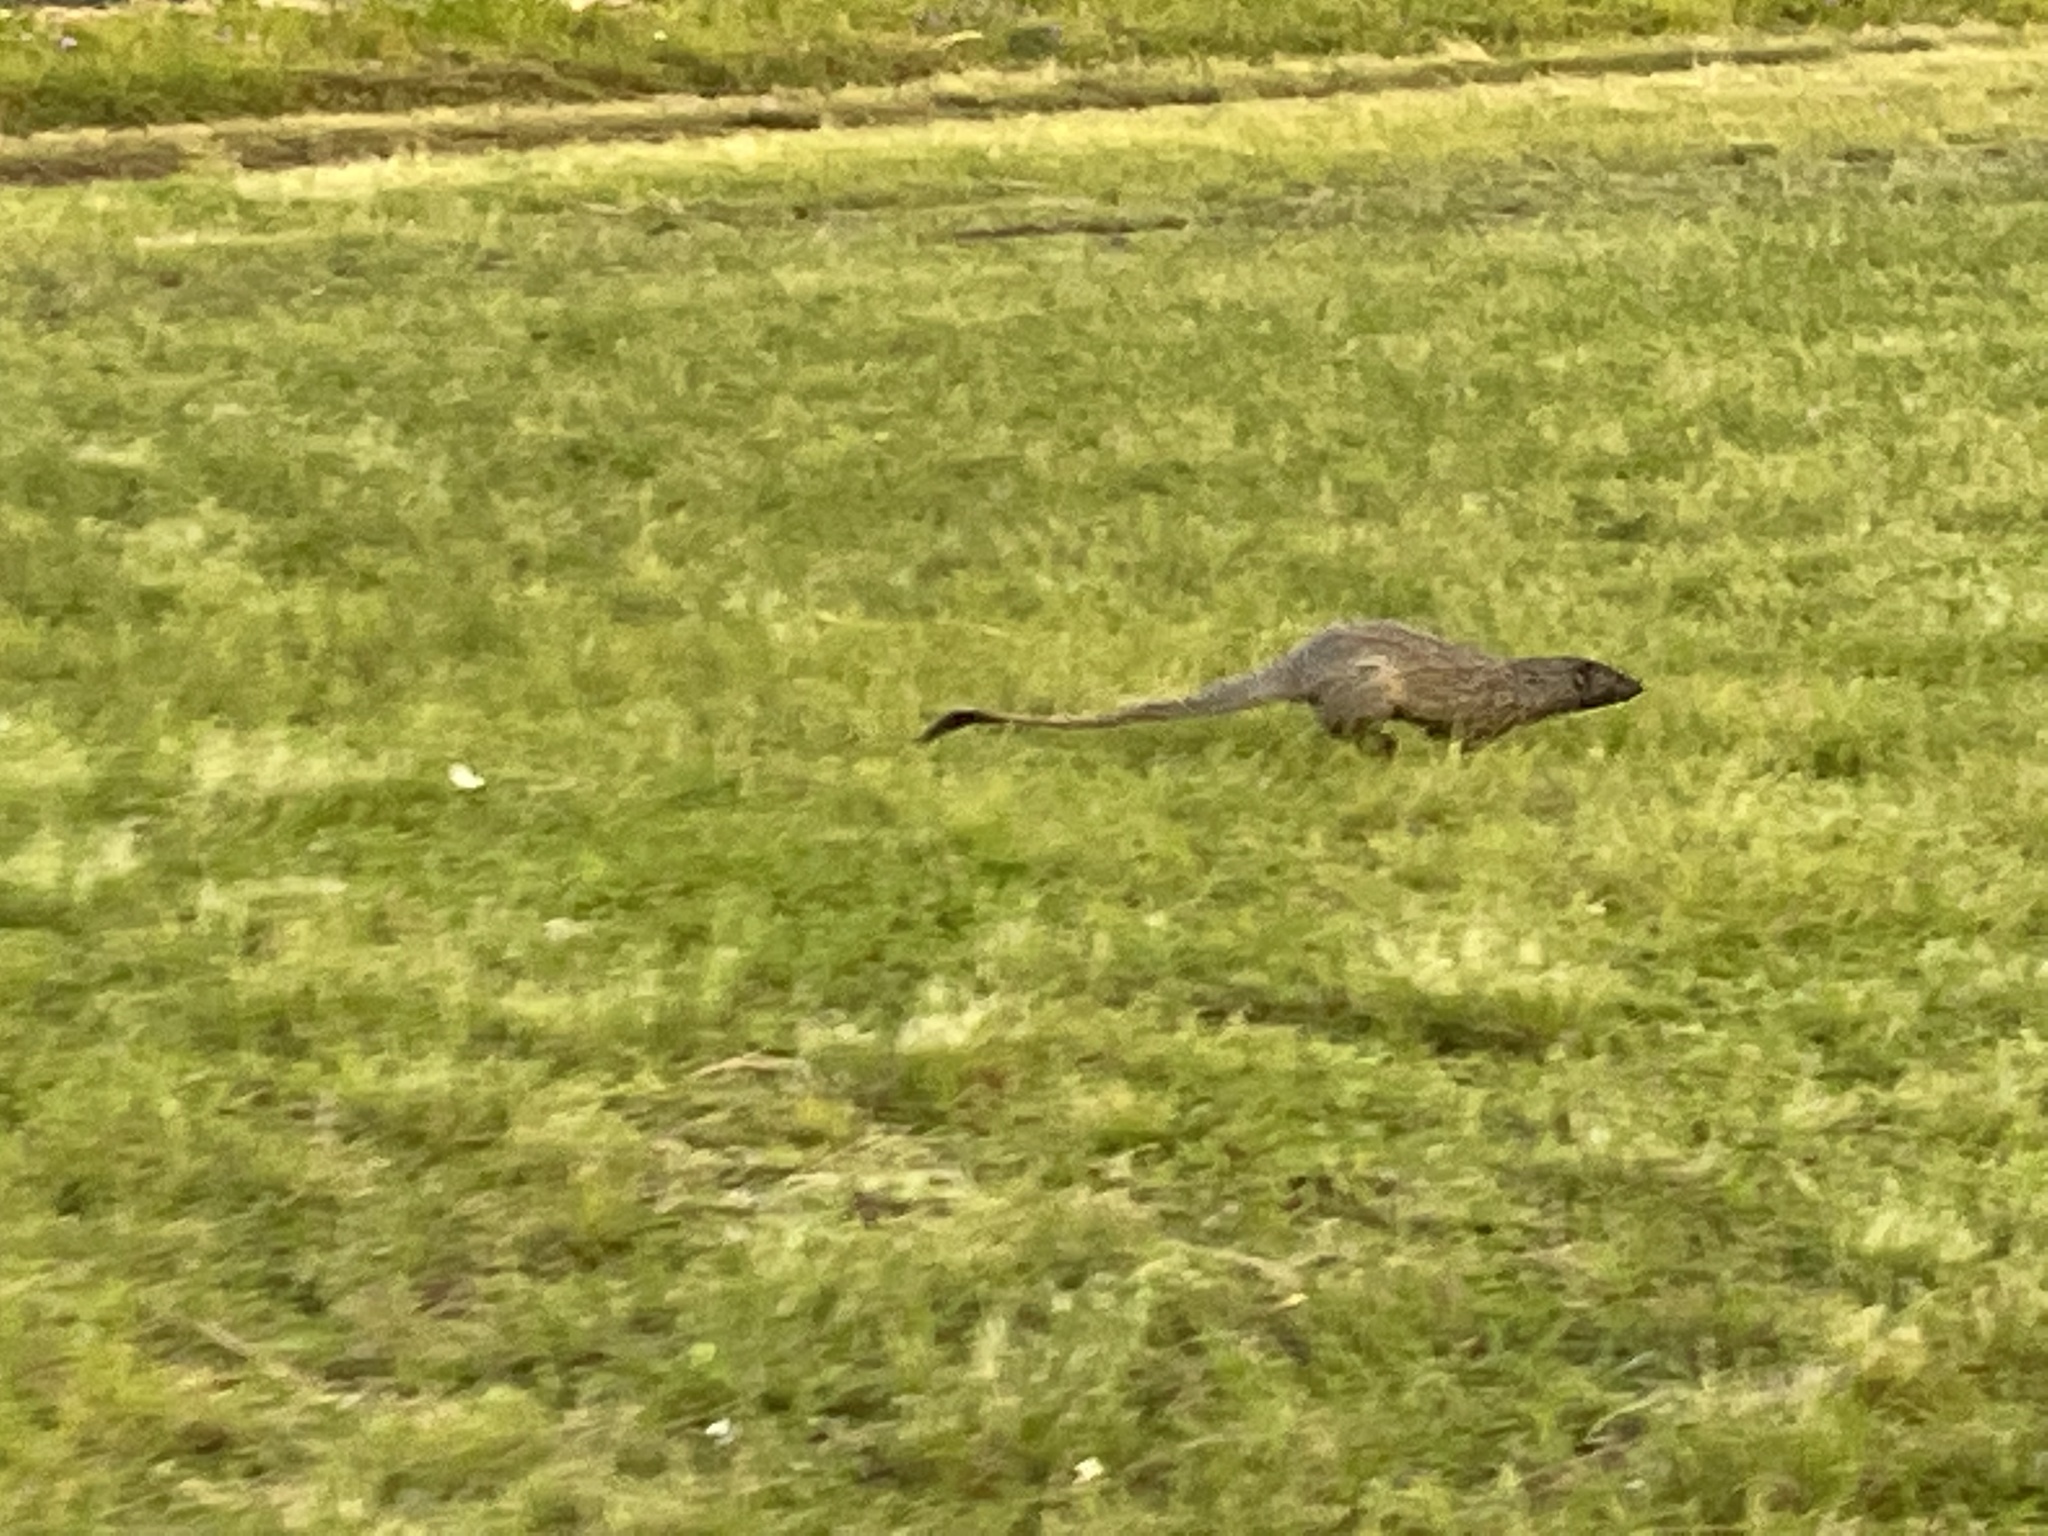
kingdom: Animalia
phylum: Chordata
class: Mammalia
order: Carnivora
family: Herpestidae
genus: Herpestes
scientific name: Herpestes ichneumon
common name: Egyptian mongoose
